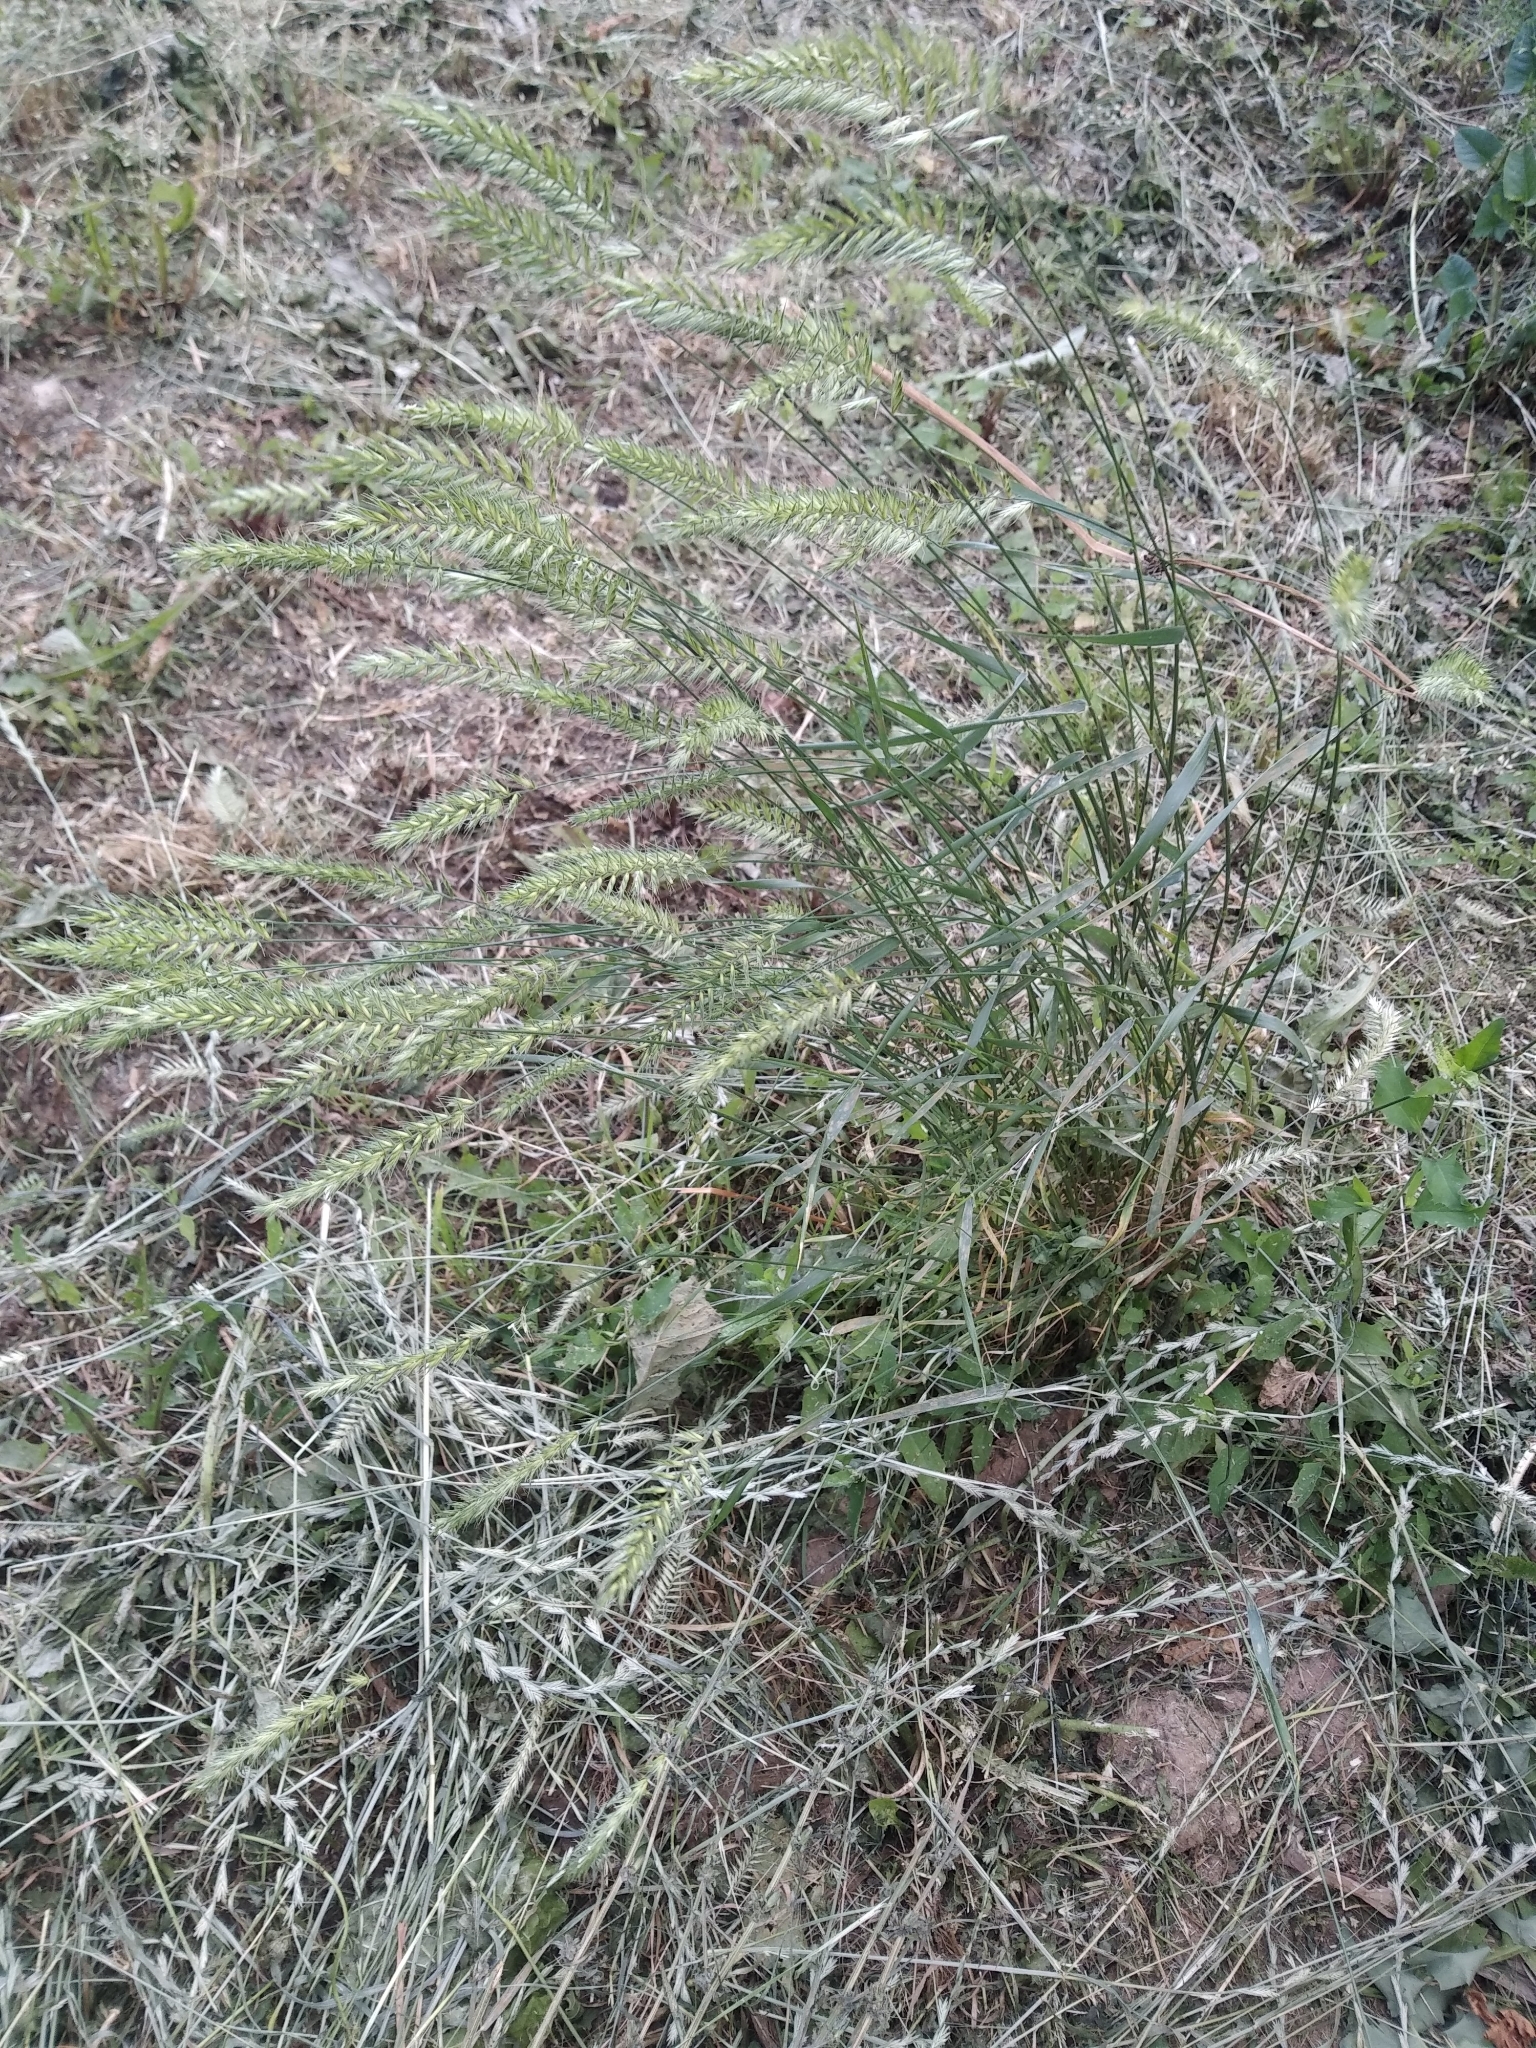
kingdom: Plantae
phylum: Tracheophyta
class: Liliopsida
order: Poales
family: Poaceae
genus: Agropyron
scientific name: Agropyron cristatum
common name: Crested wheatgrass
